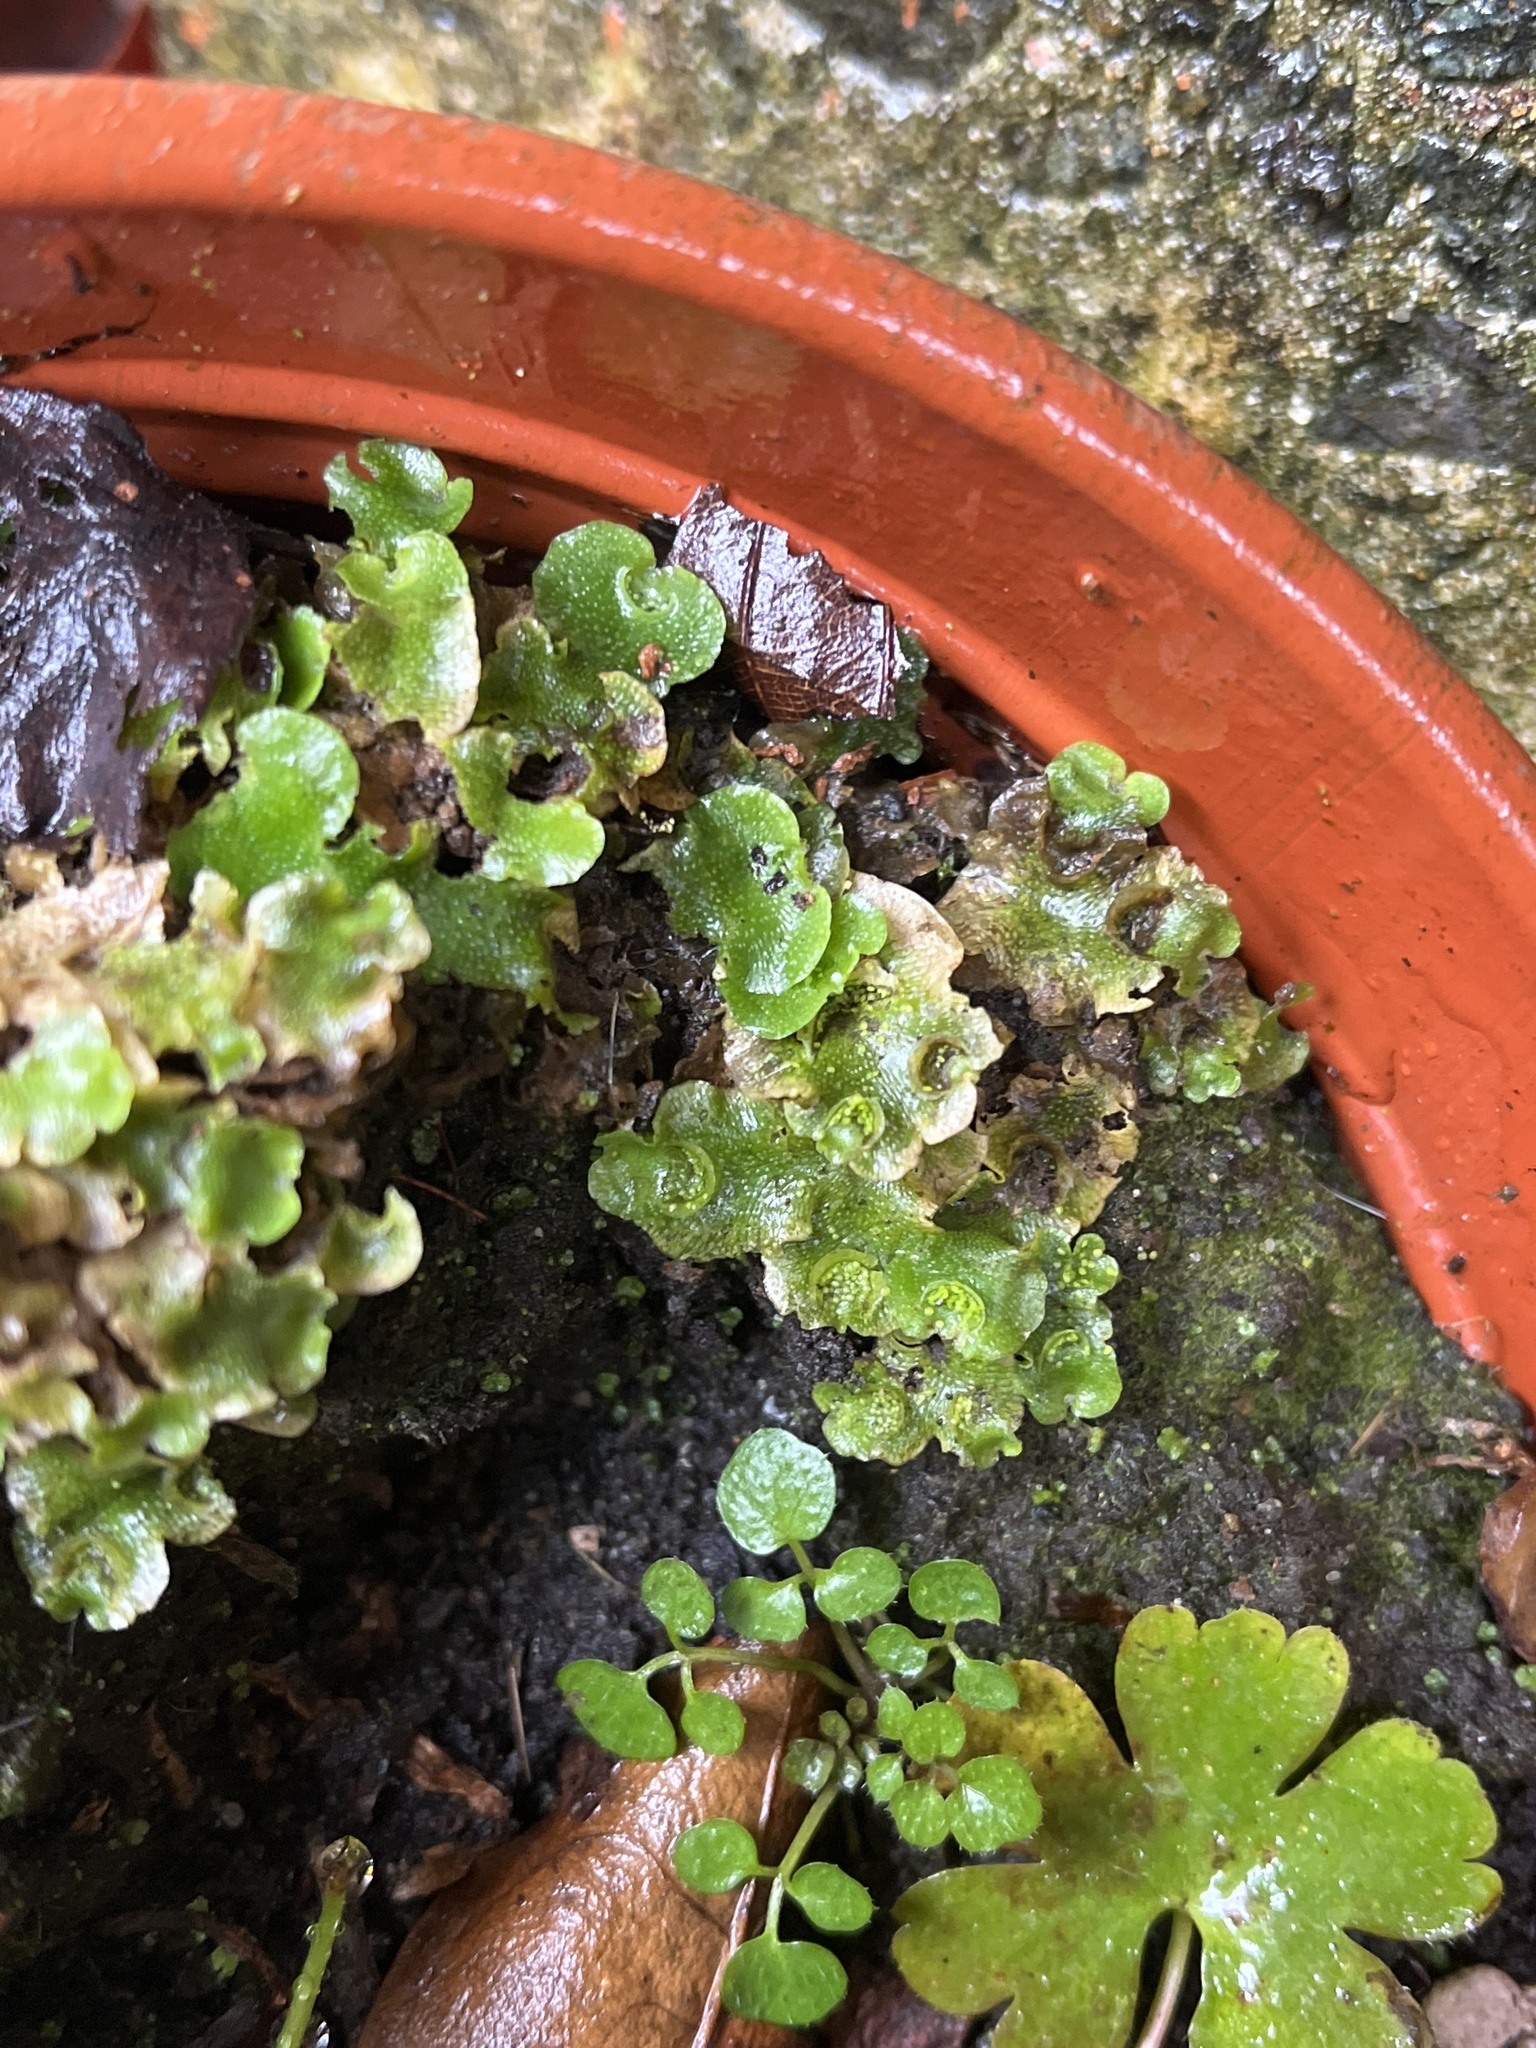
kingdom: Plantae
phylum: Marchantiophyta
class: Marchantiopsida
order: Lunulariales
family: Lunulariaceae
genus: Lunularia
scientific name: Lunularia cruciata
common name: Crescent-cup liverwort
